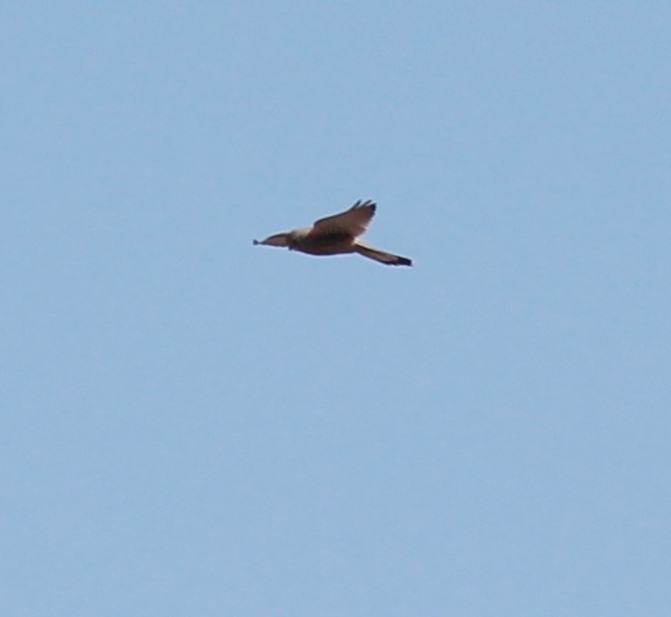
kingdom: Animalia
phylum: Chordata
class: Aves
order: Falconiformes
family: Falconidae
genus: Falco
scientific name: Falco tinnunculus
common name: Common kestrel
